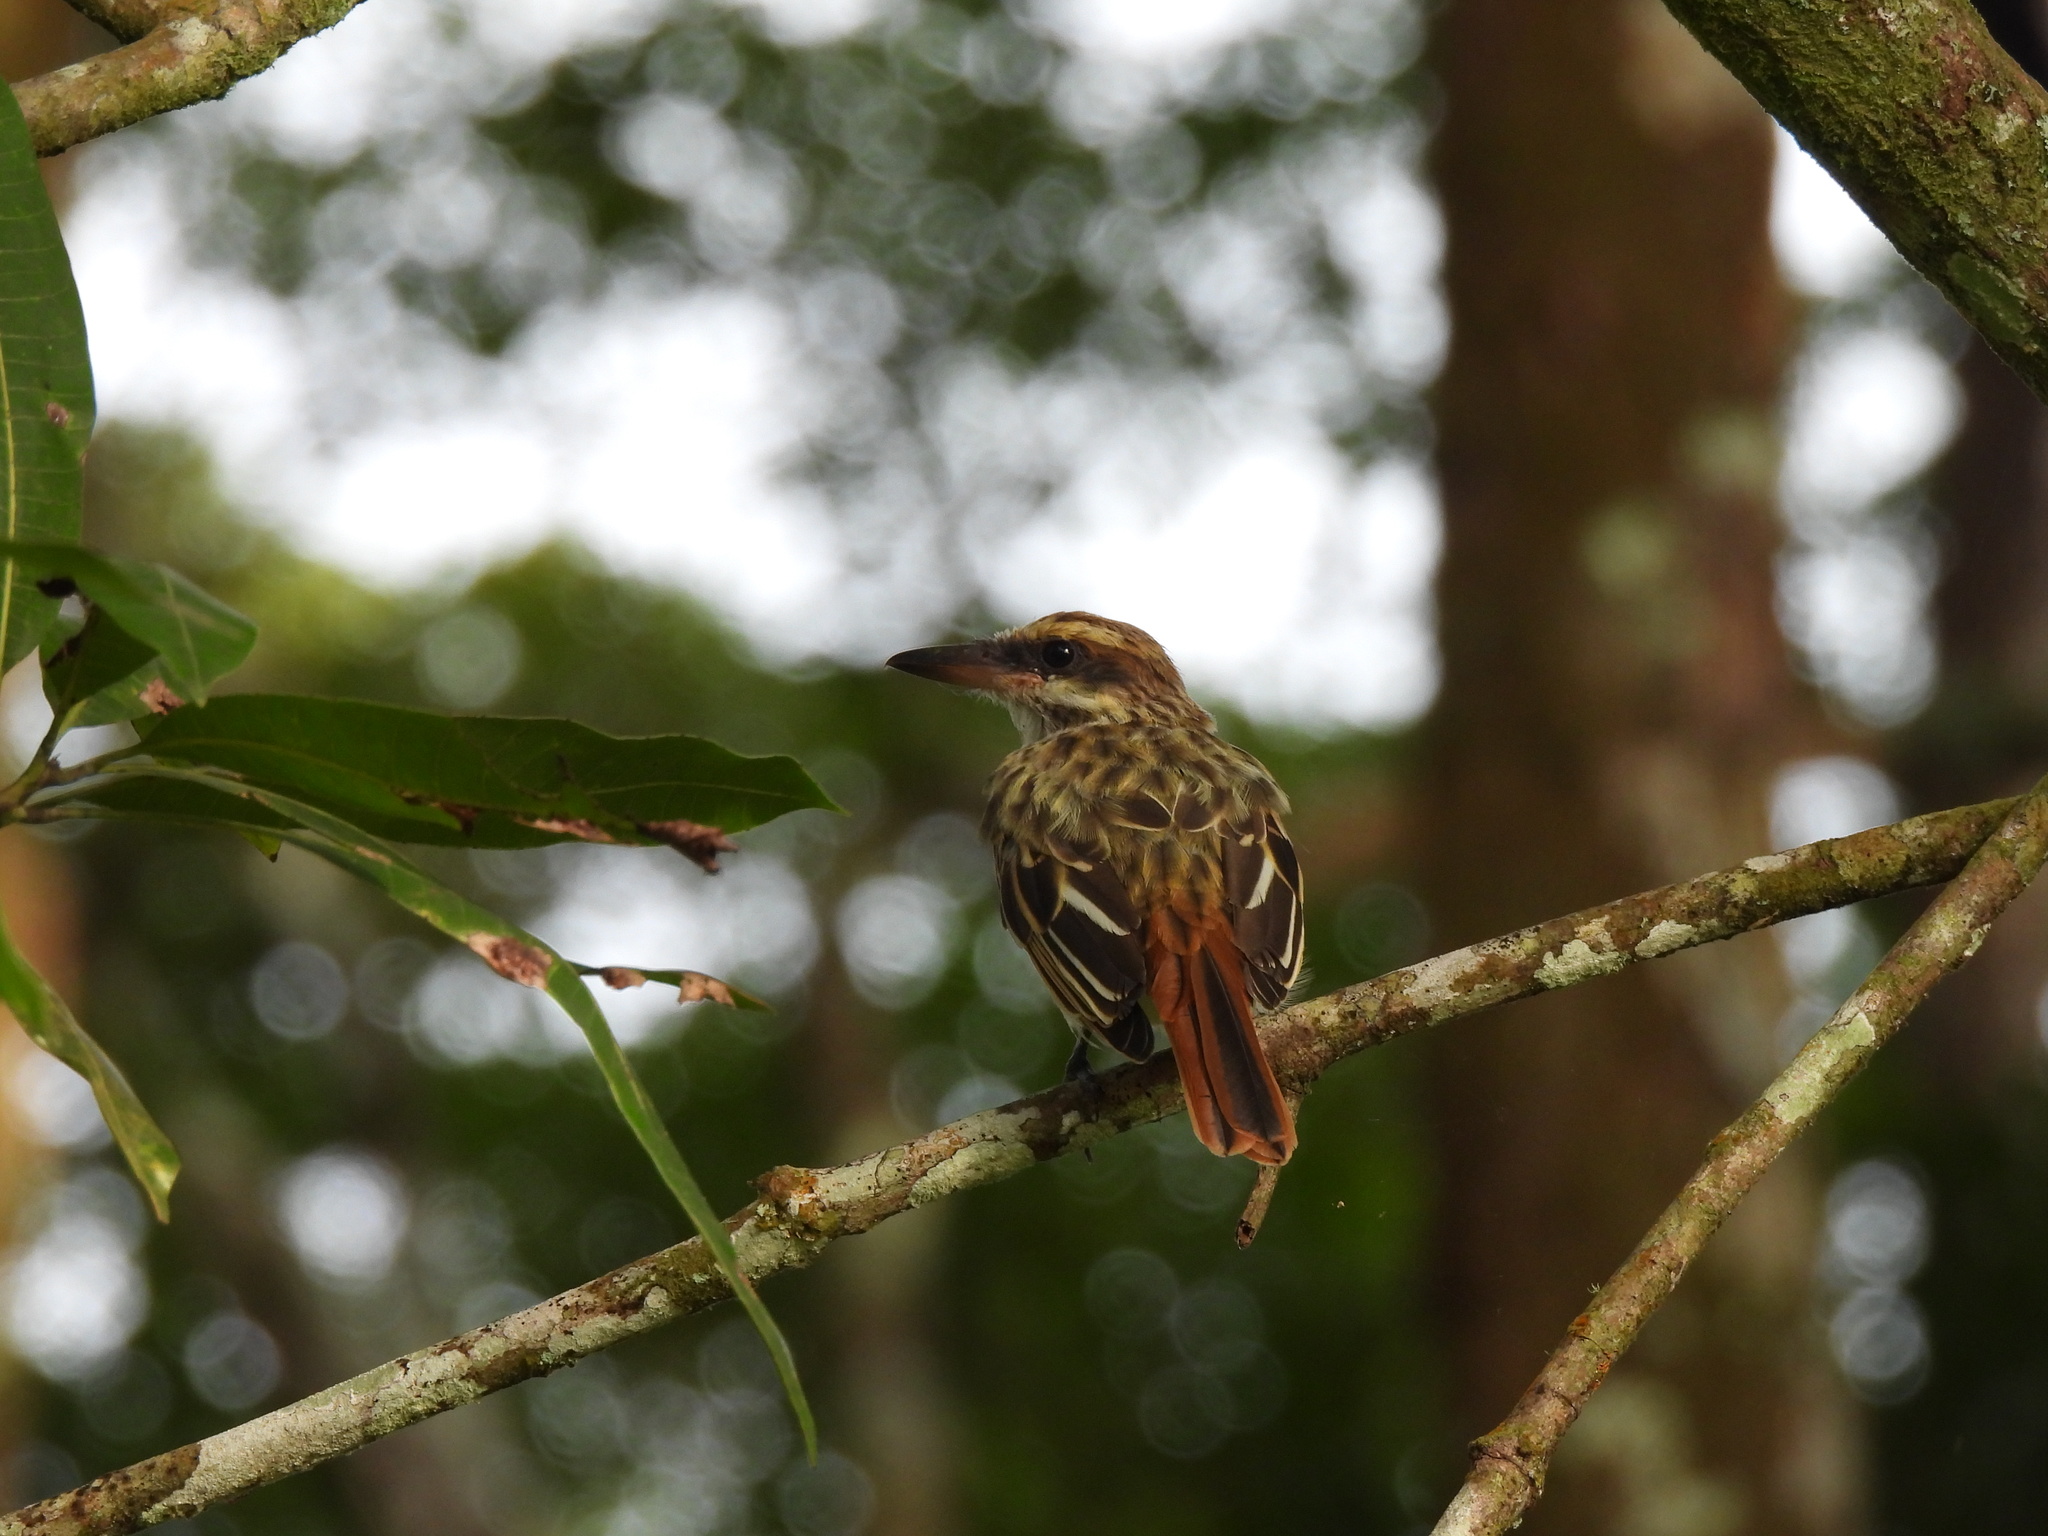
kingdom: Animalia
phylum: Chordata
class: Aves
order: Passeriformes
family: Tyrannidae
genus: Myiodynastes
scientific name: Myiodynastes maculatus
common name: Streaked flycatcher
